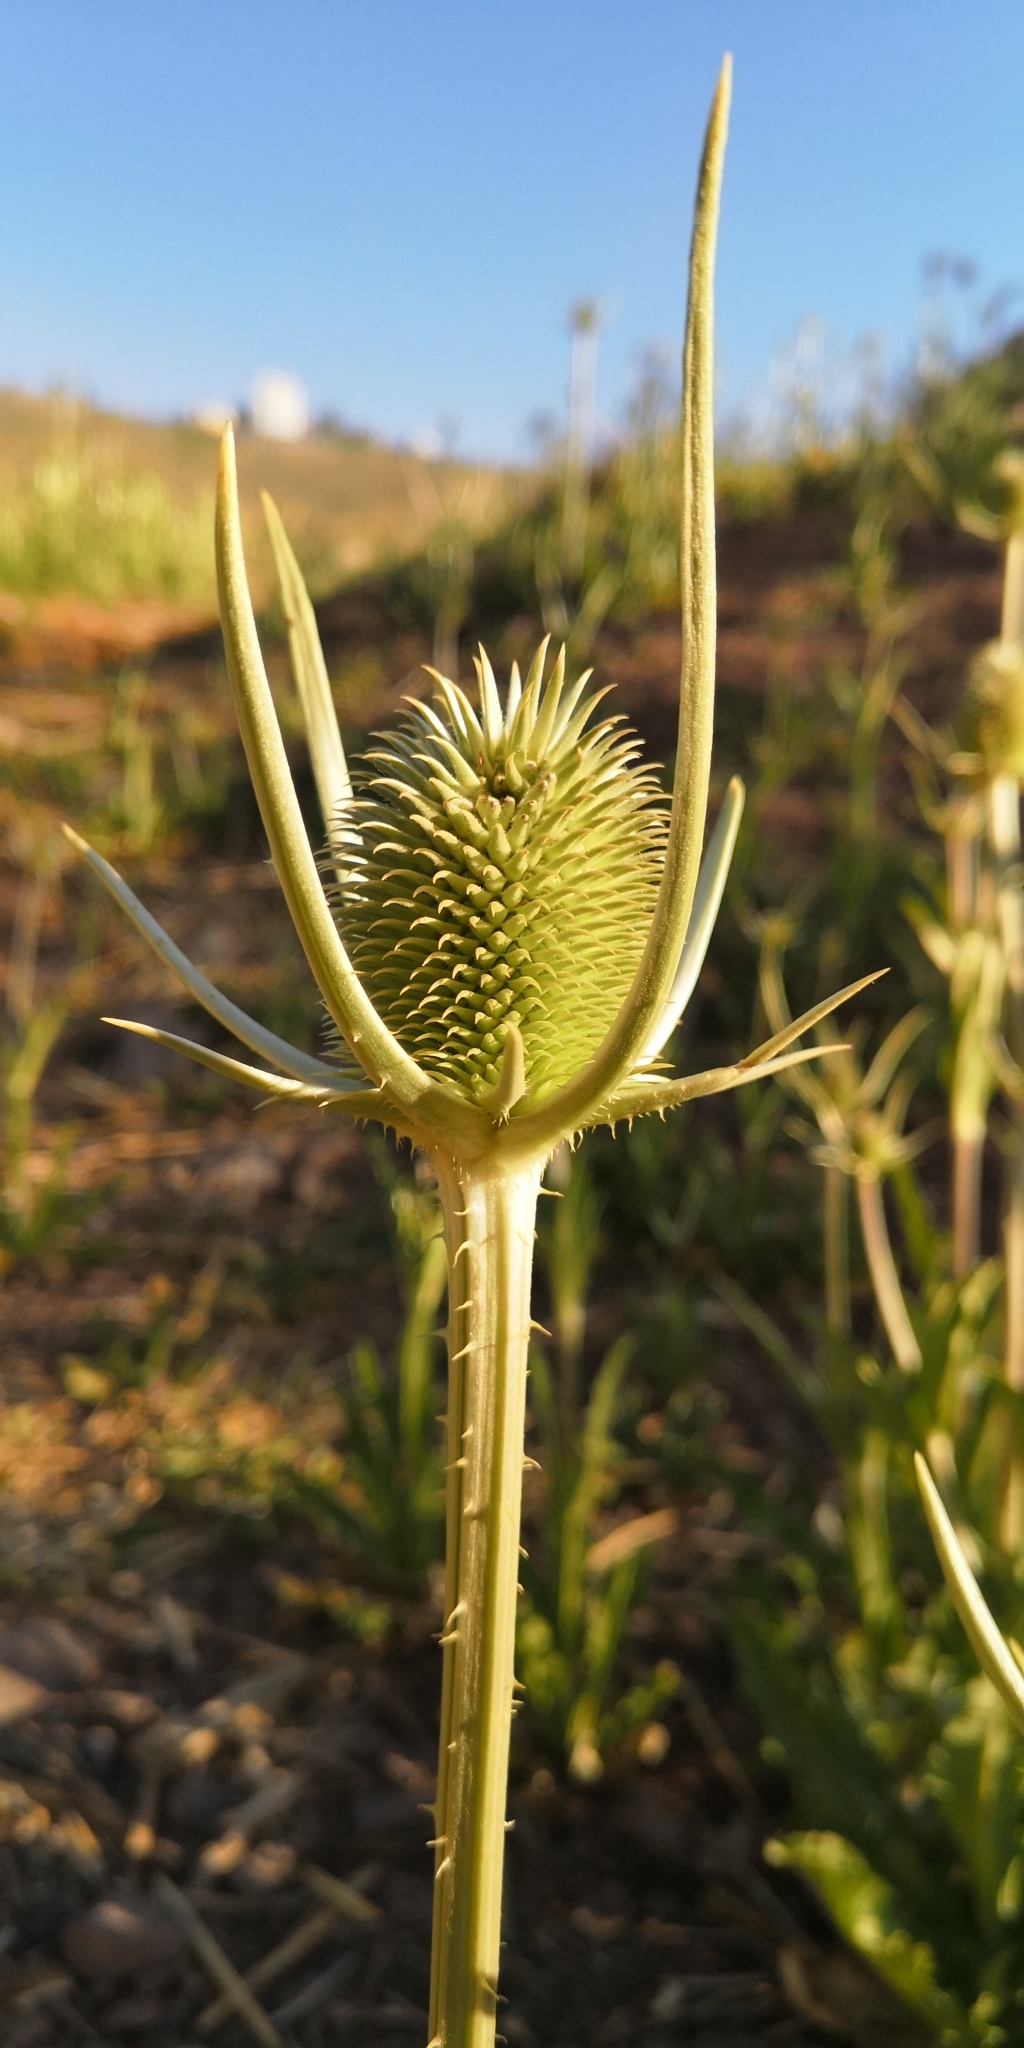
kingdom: Plantae
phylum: Tracheophyta
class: Magnoliopsida
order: Dipsacales
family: Caprifoliaceae
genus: Dipsacus
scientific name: Dipsacus sativus
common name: Fuller's teasel
